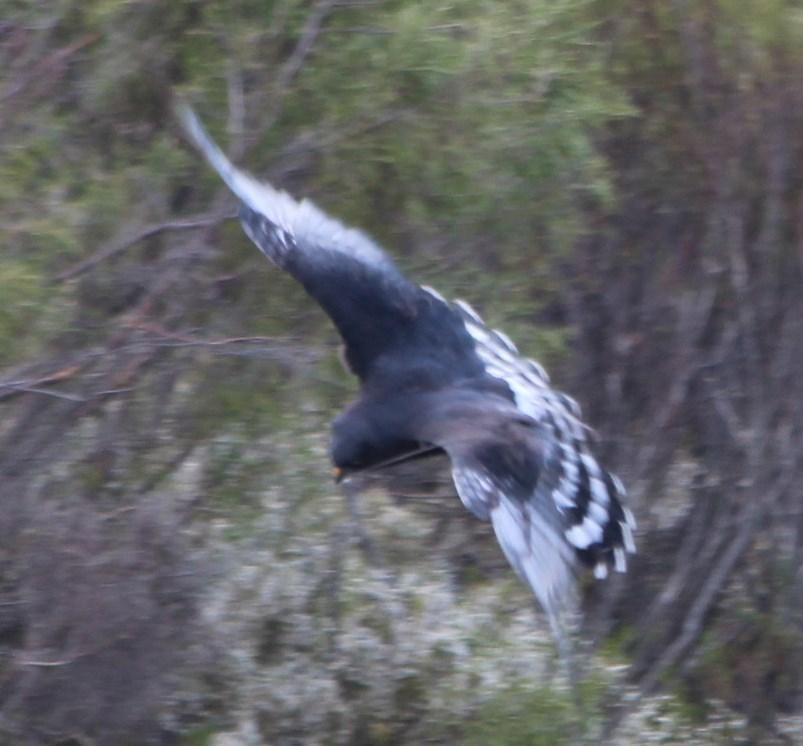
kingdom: Animalia
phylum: Chordata
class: Aves
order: Accipitriformes
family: Accipitridae
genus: Circus
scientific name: Circus maurus
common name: Black harrier
